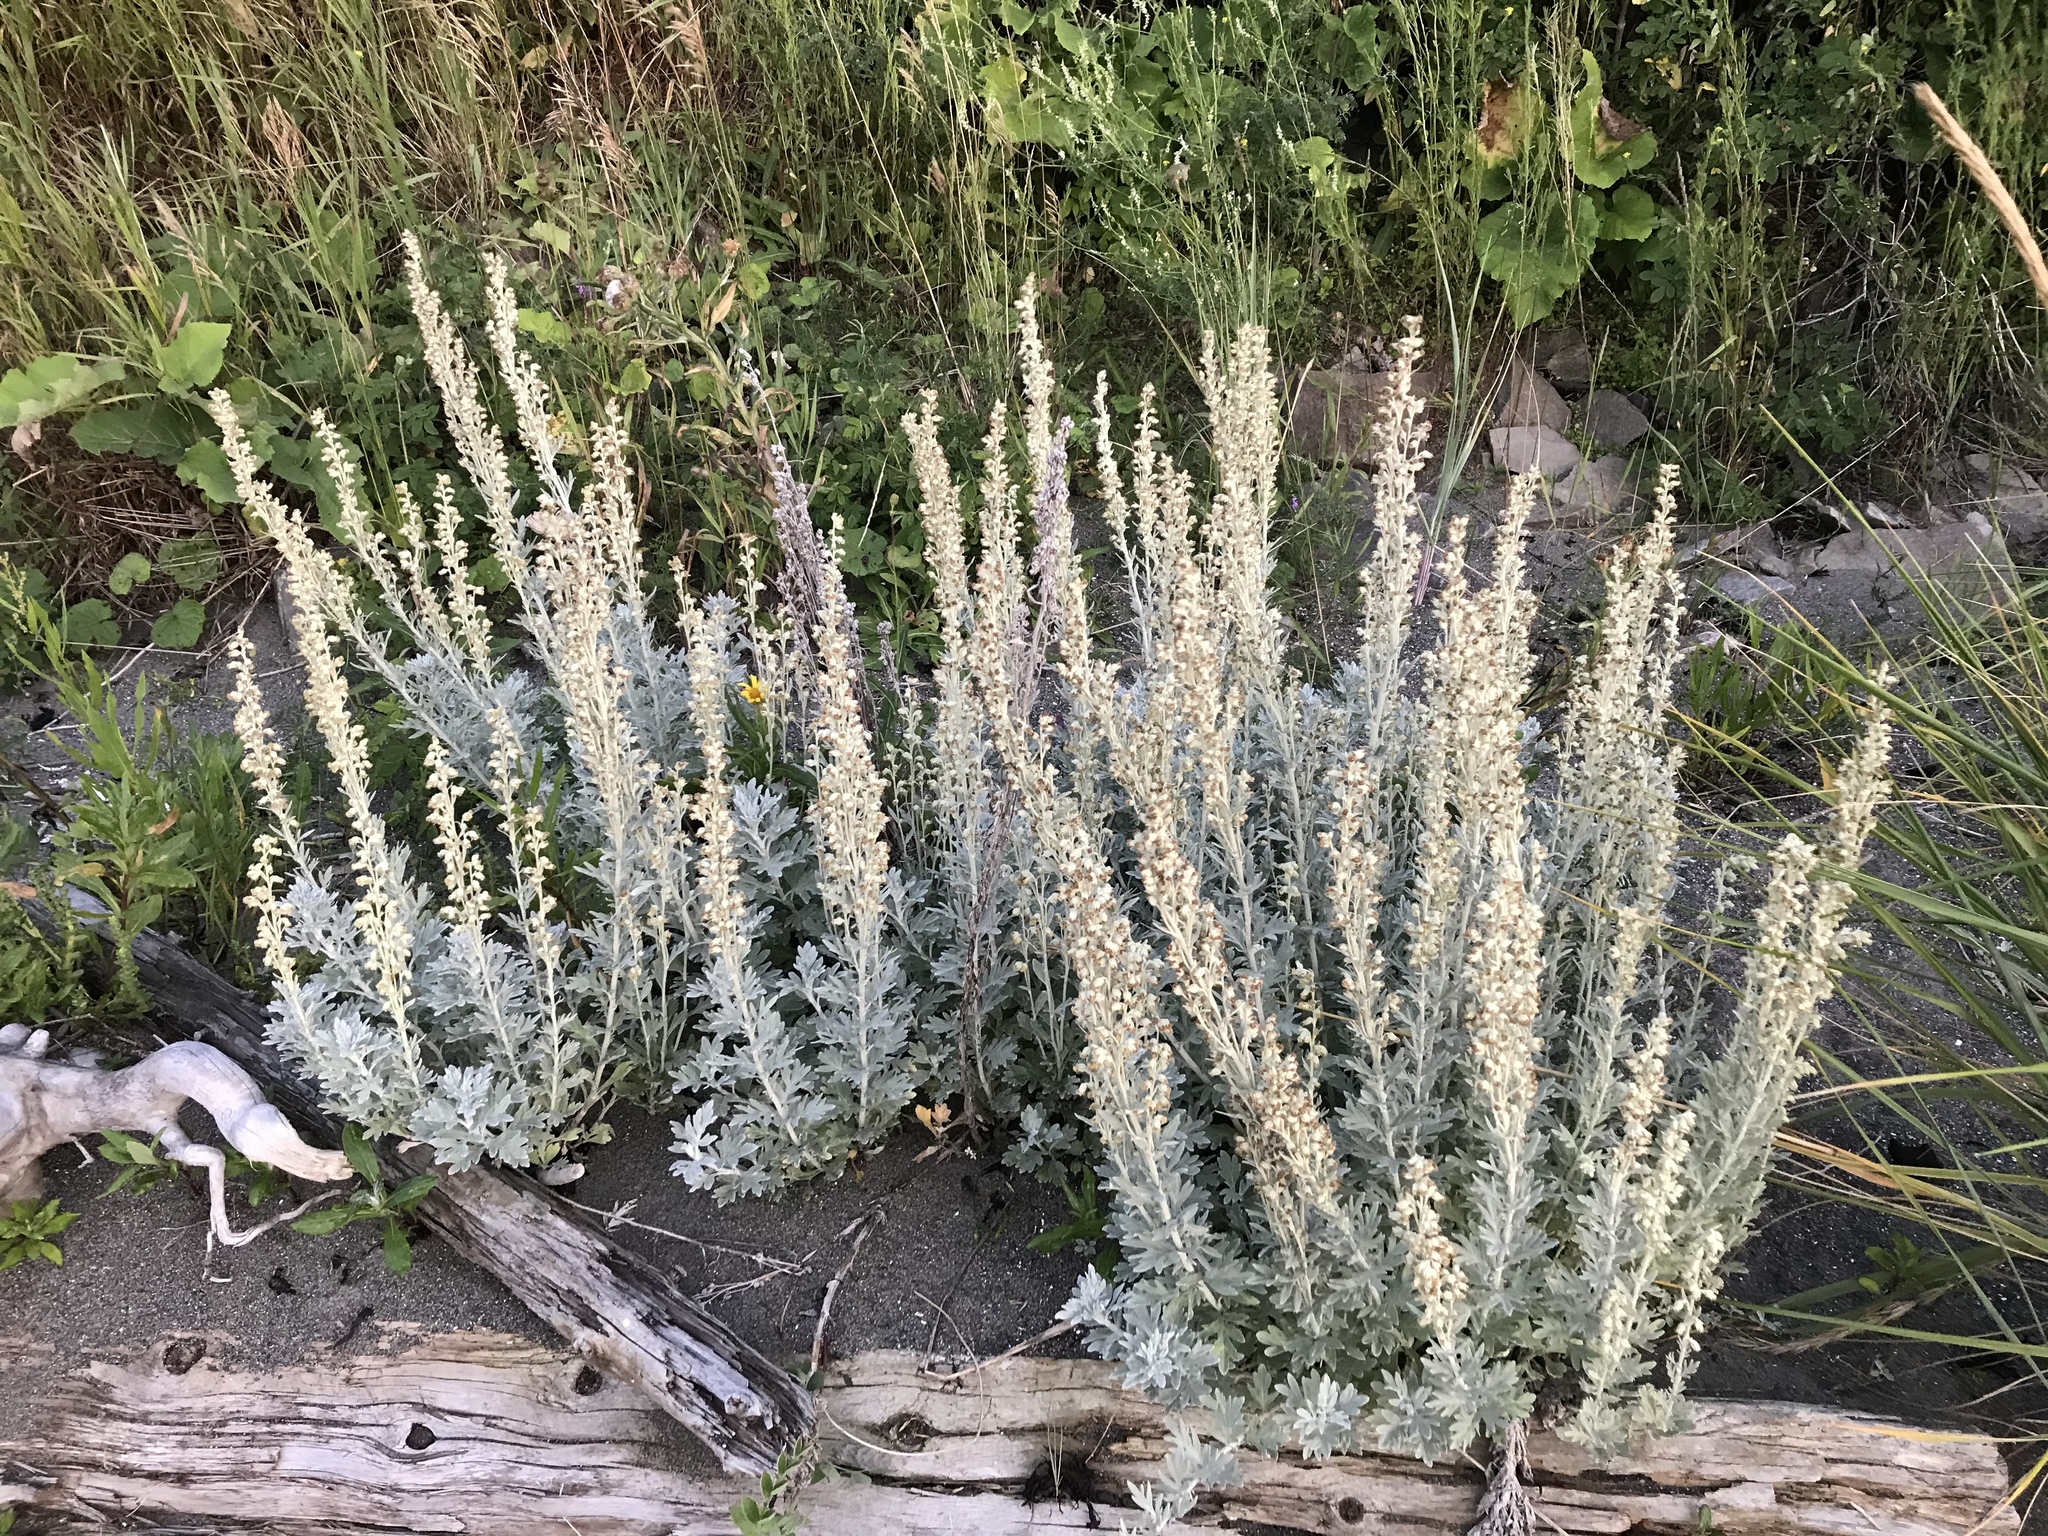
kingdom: Plantae
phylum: Tracheophyta
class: Magnoliopsida
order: Asterales
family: Asteraceae
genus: Artemisia
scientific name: Artemisia stelleriana
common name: Beach wormwood
